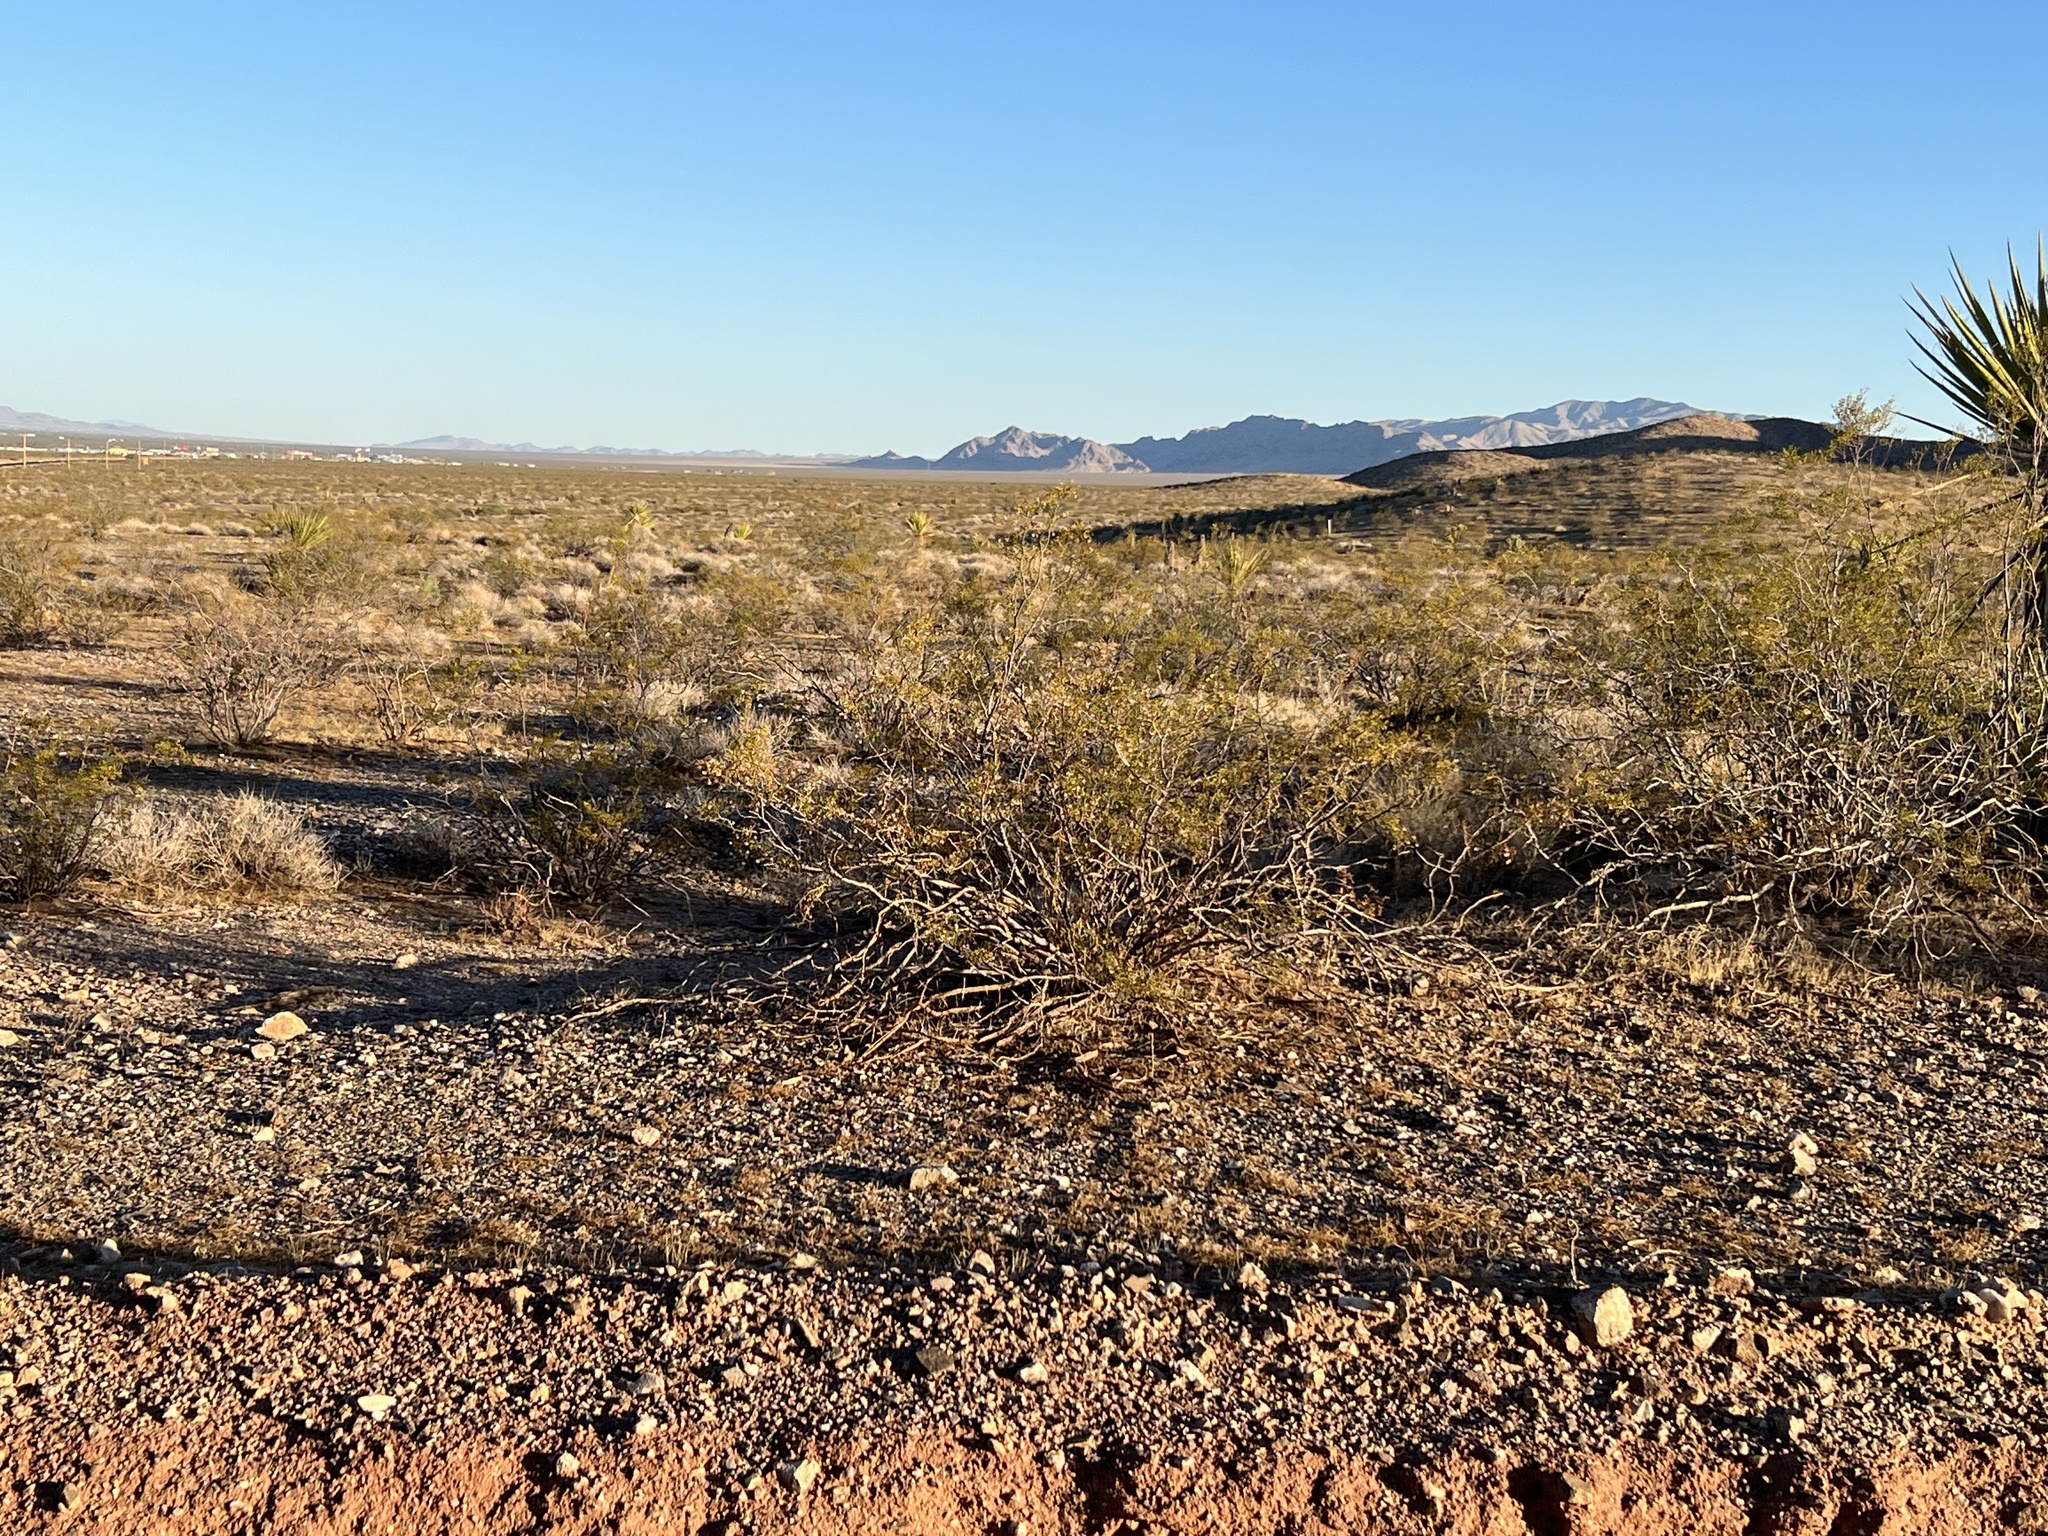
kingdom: Plantae
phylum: Tracheophyta
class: Magnoliopsida
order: Zygophyllales
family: Zygophyllaceae
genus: Larrea
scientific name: Larrea tridentata
